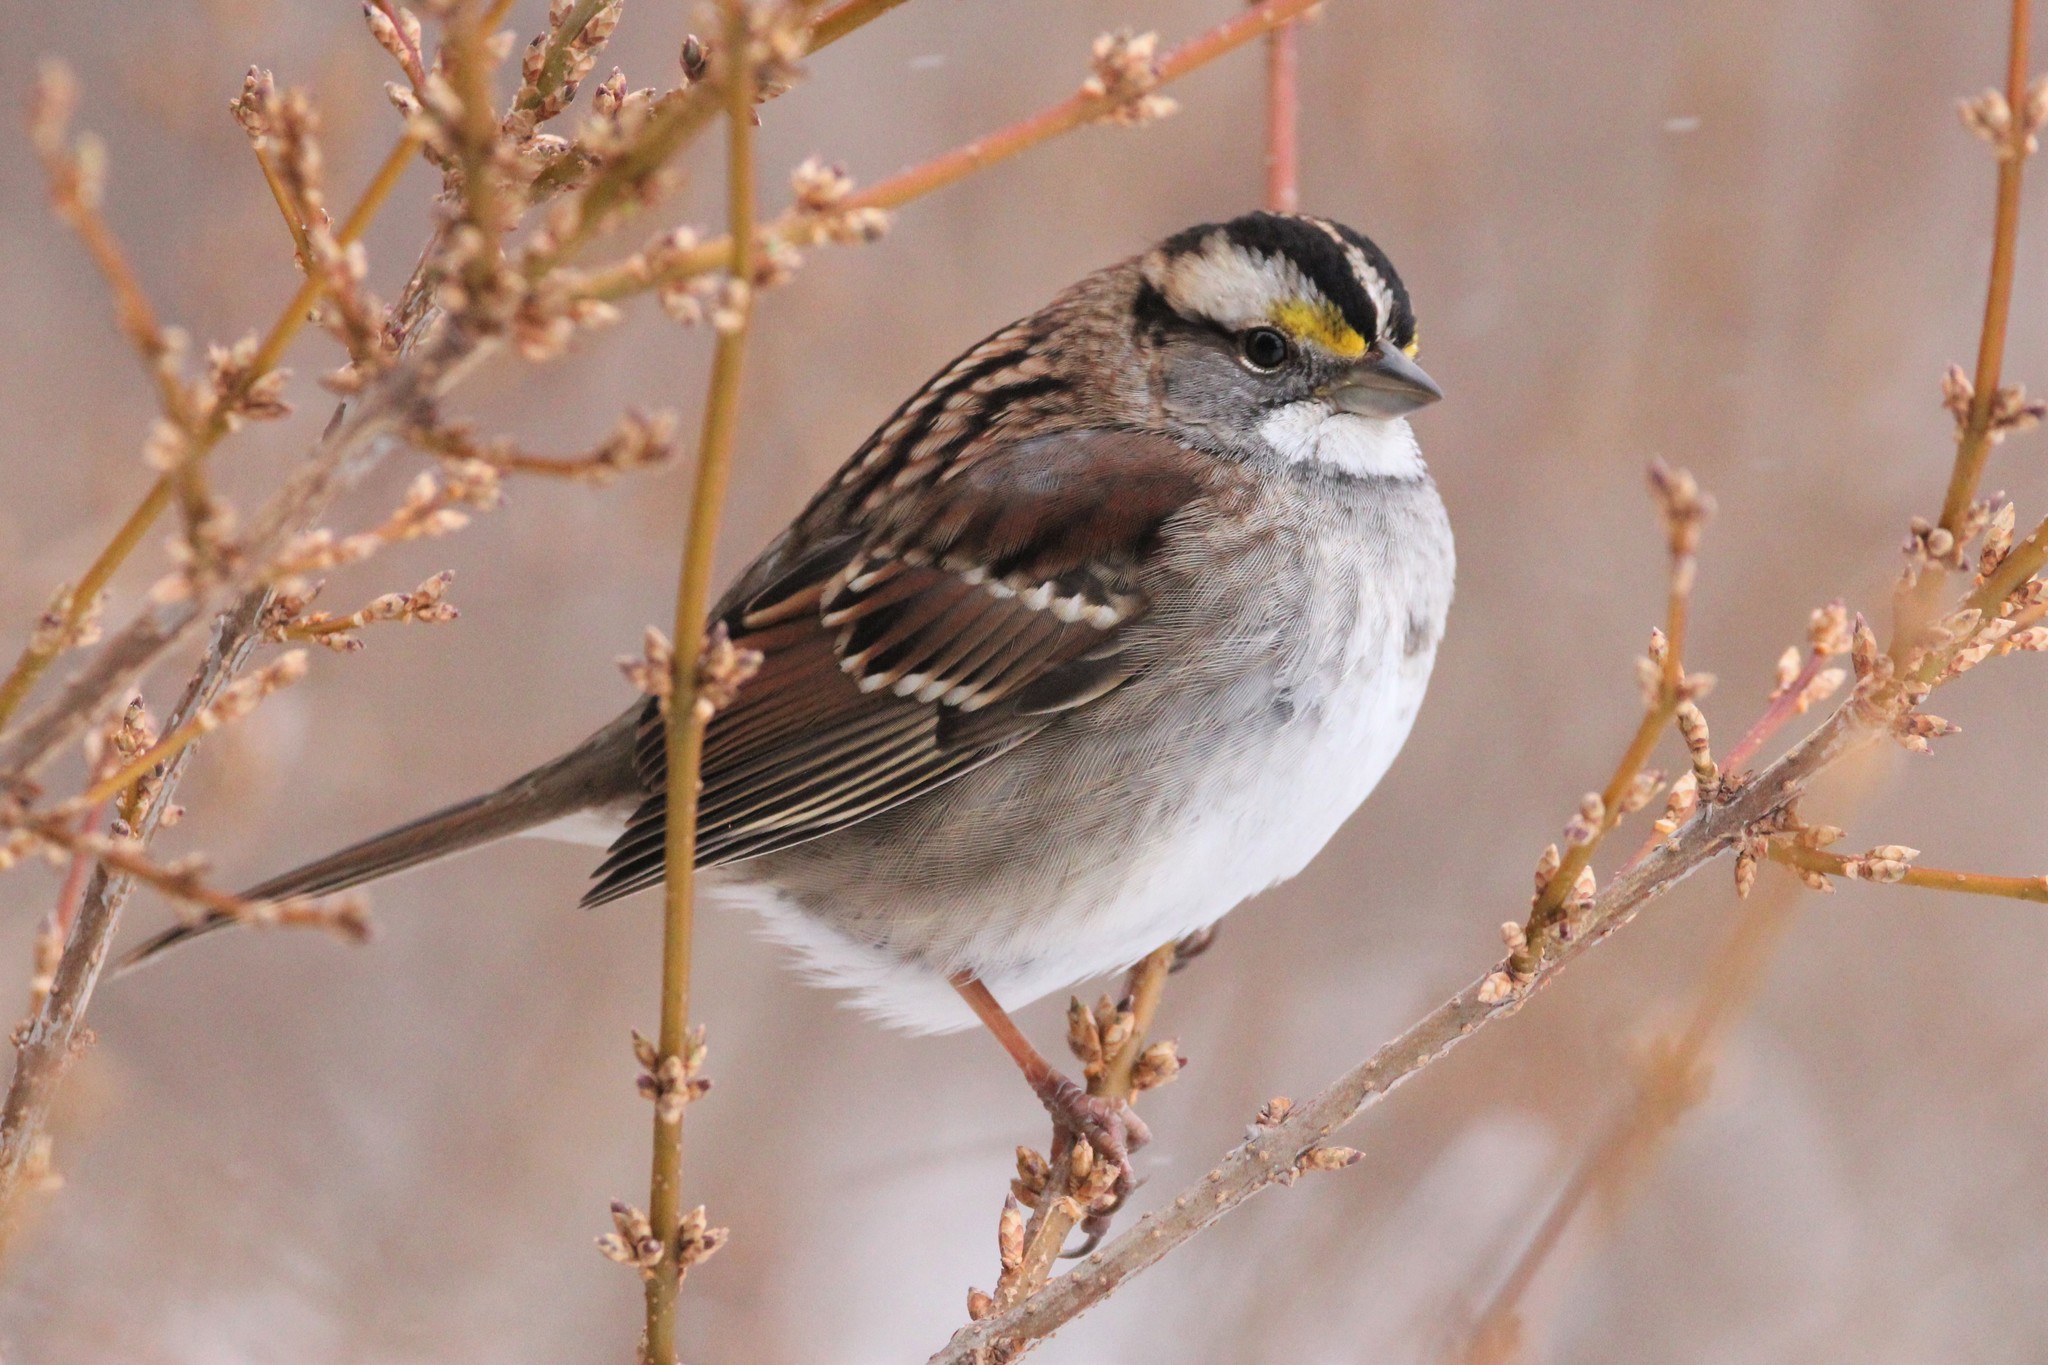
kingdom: Animalia
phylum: Chordata
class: Aves
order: Passeriformes
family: Passerellidae
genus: Zonotrichia
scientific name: Zonotrichia albicollis
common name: White-throated sparrow
